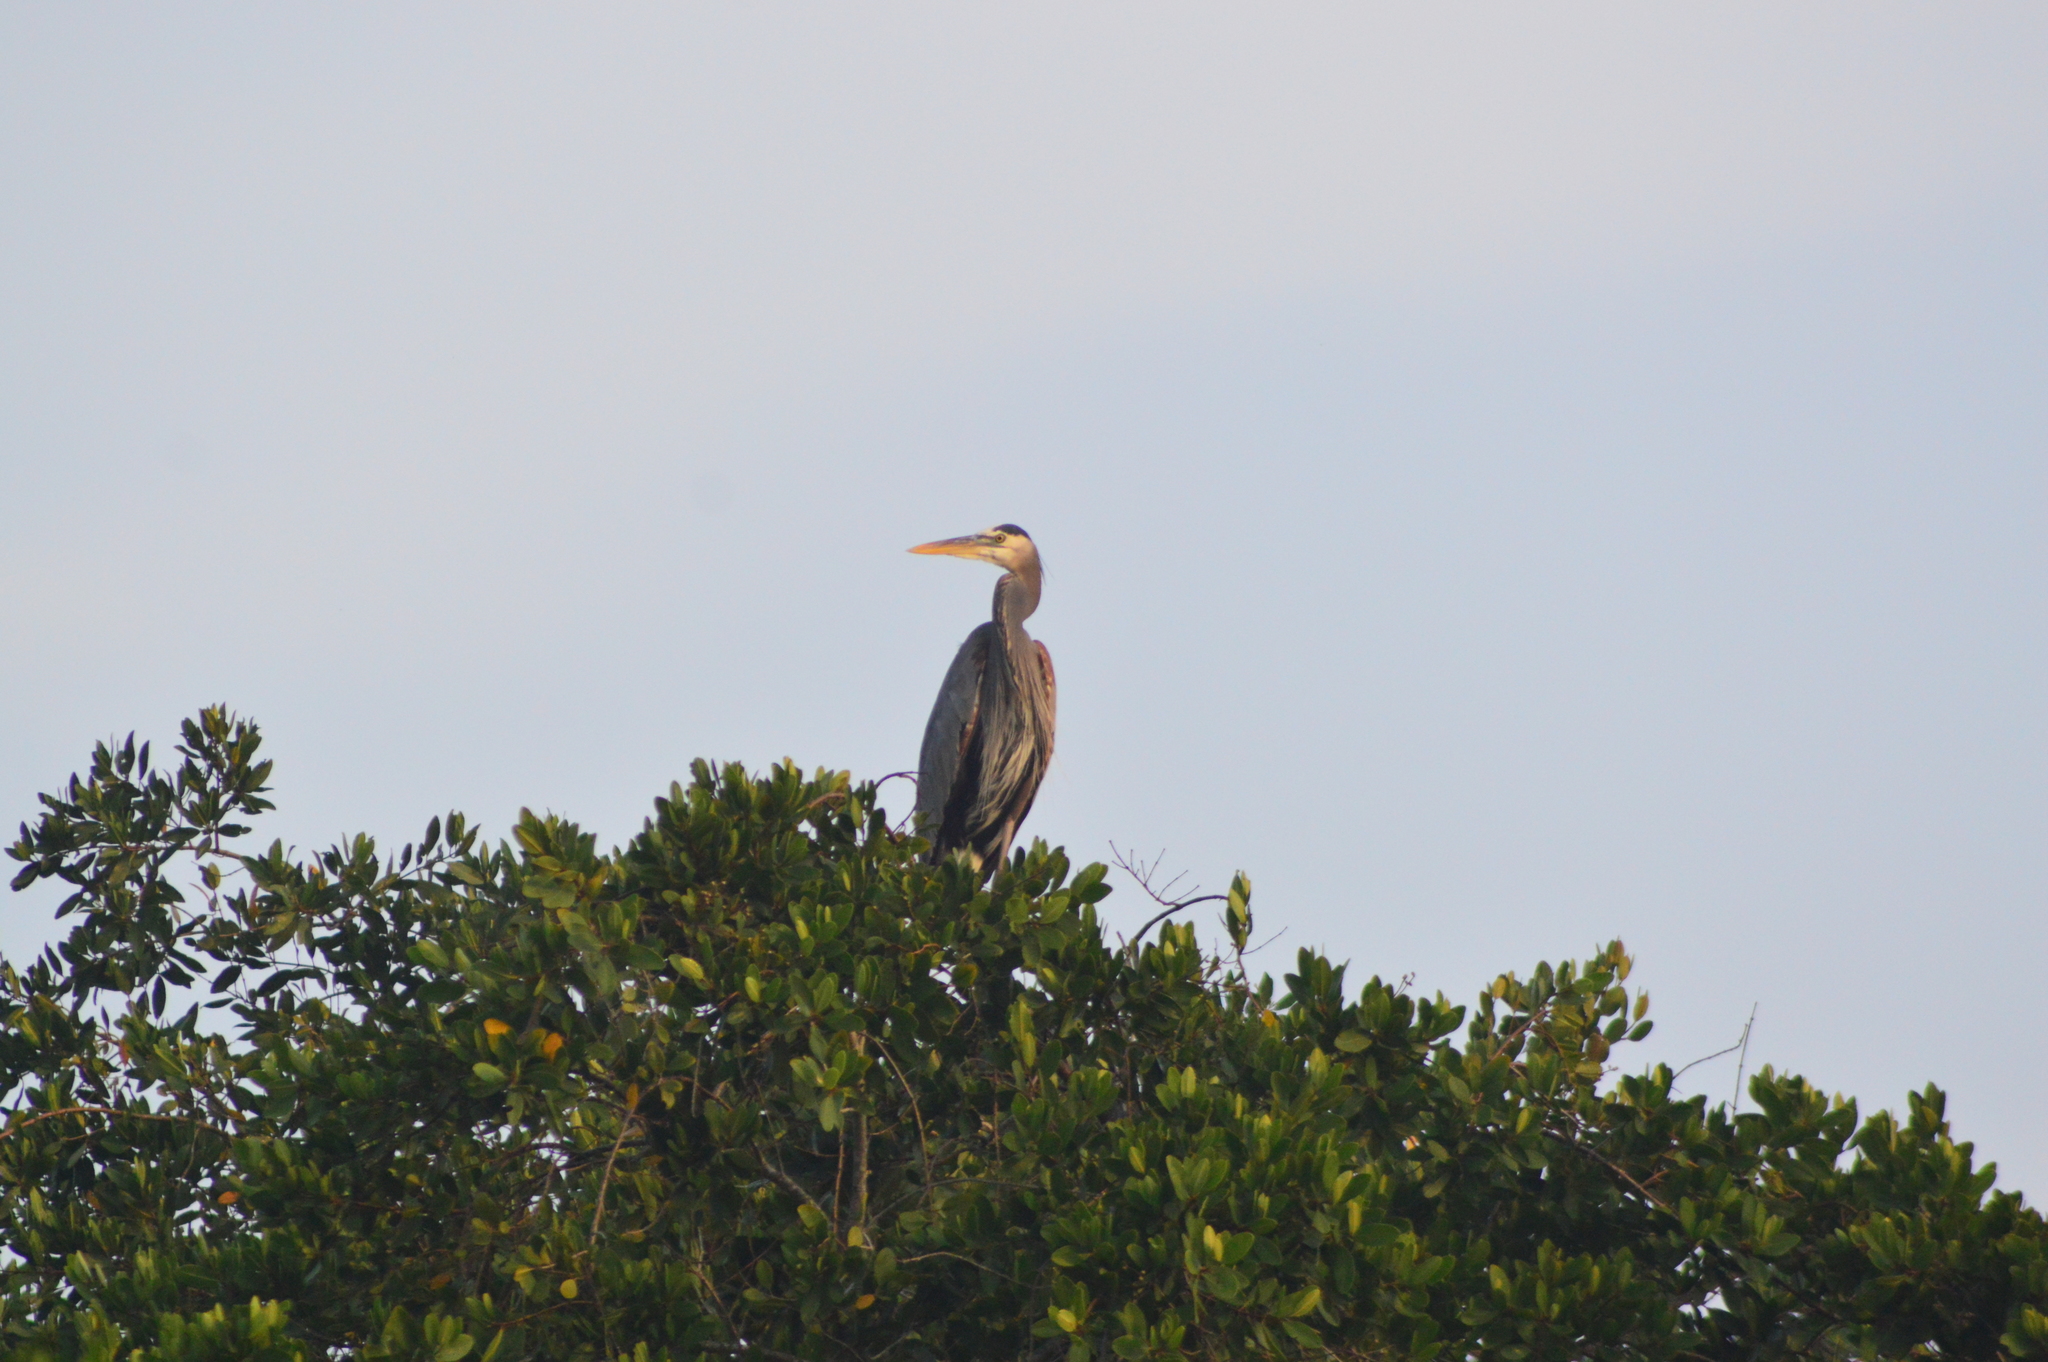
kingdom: Animalia
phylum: Chordata
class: Aves
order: Pelecaniformes
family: Ardeidae
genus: Ardea
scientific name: Ardea herodias
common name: Great blue heron
